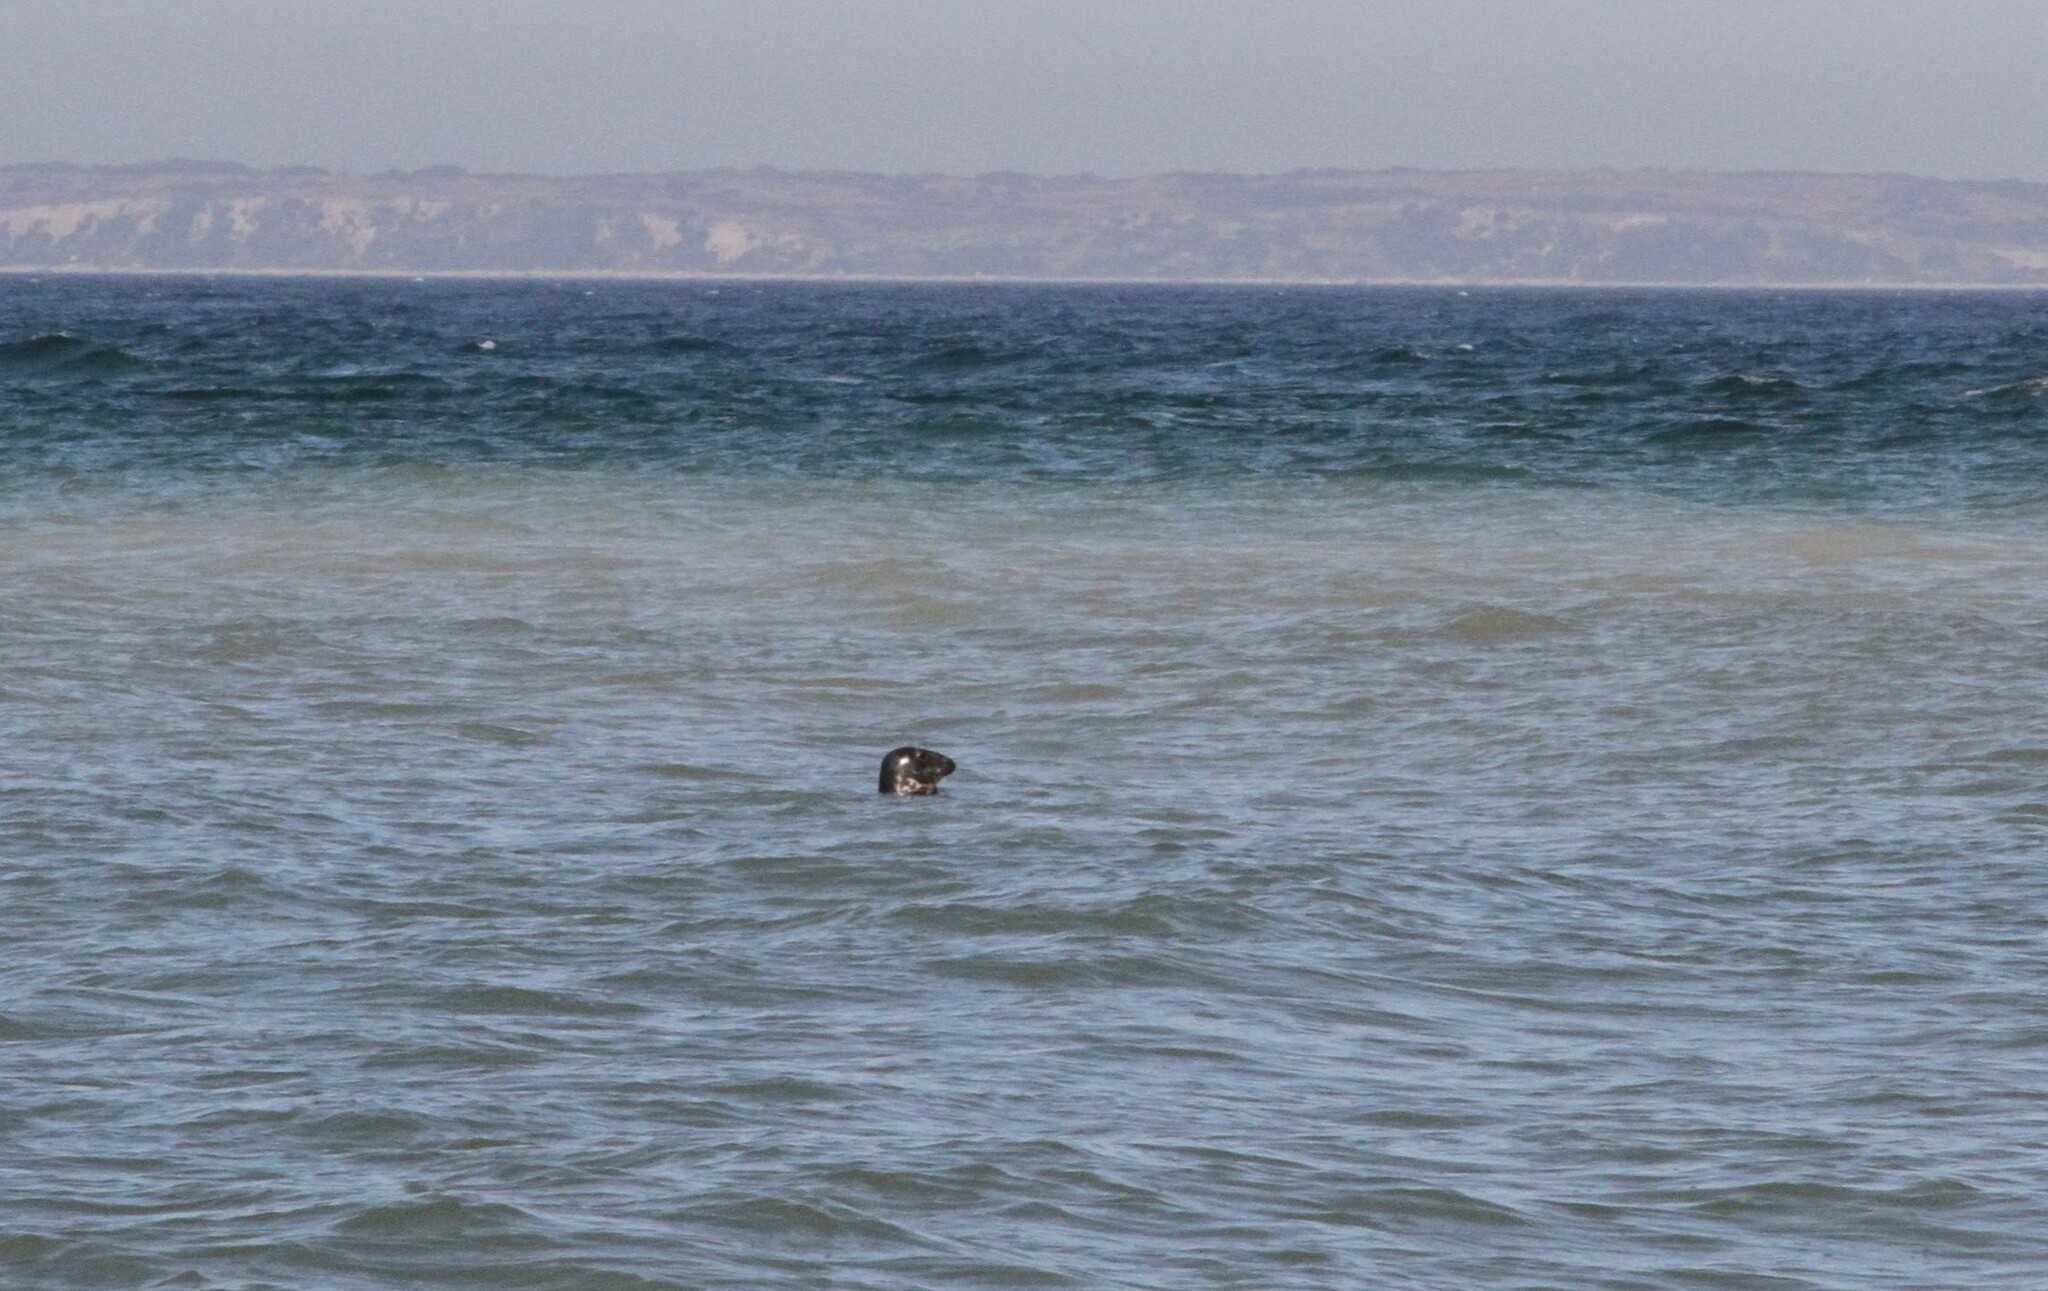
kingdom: Animalia
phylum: Chordata
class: Mammalia
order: Carnivora
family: Phocidae
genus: Halichoerus
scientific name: Halichoerus grypus
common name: Grey seal
